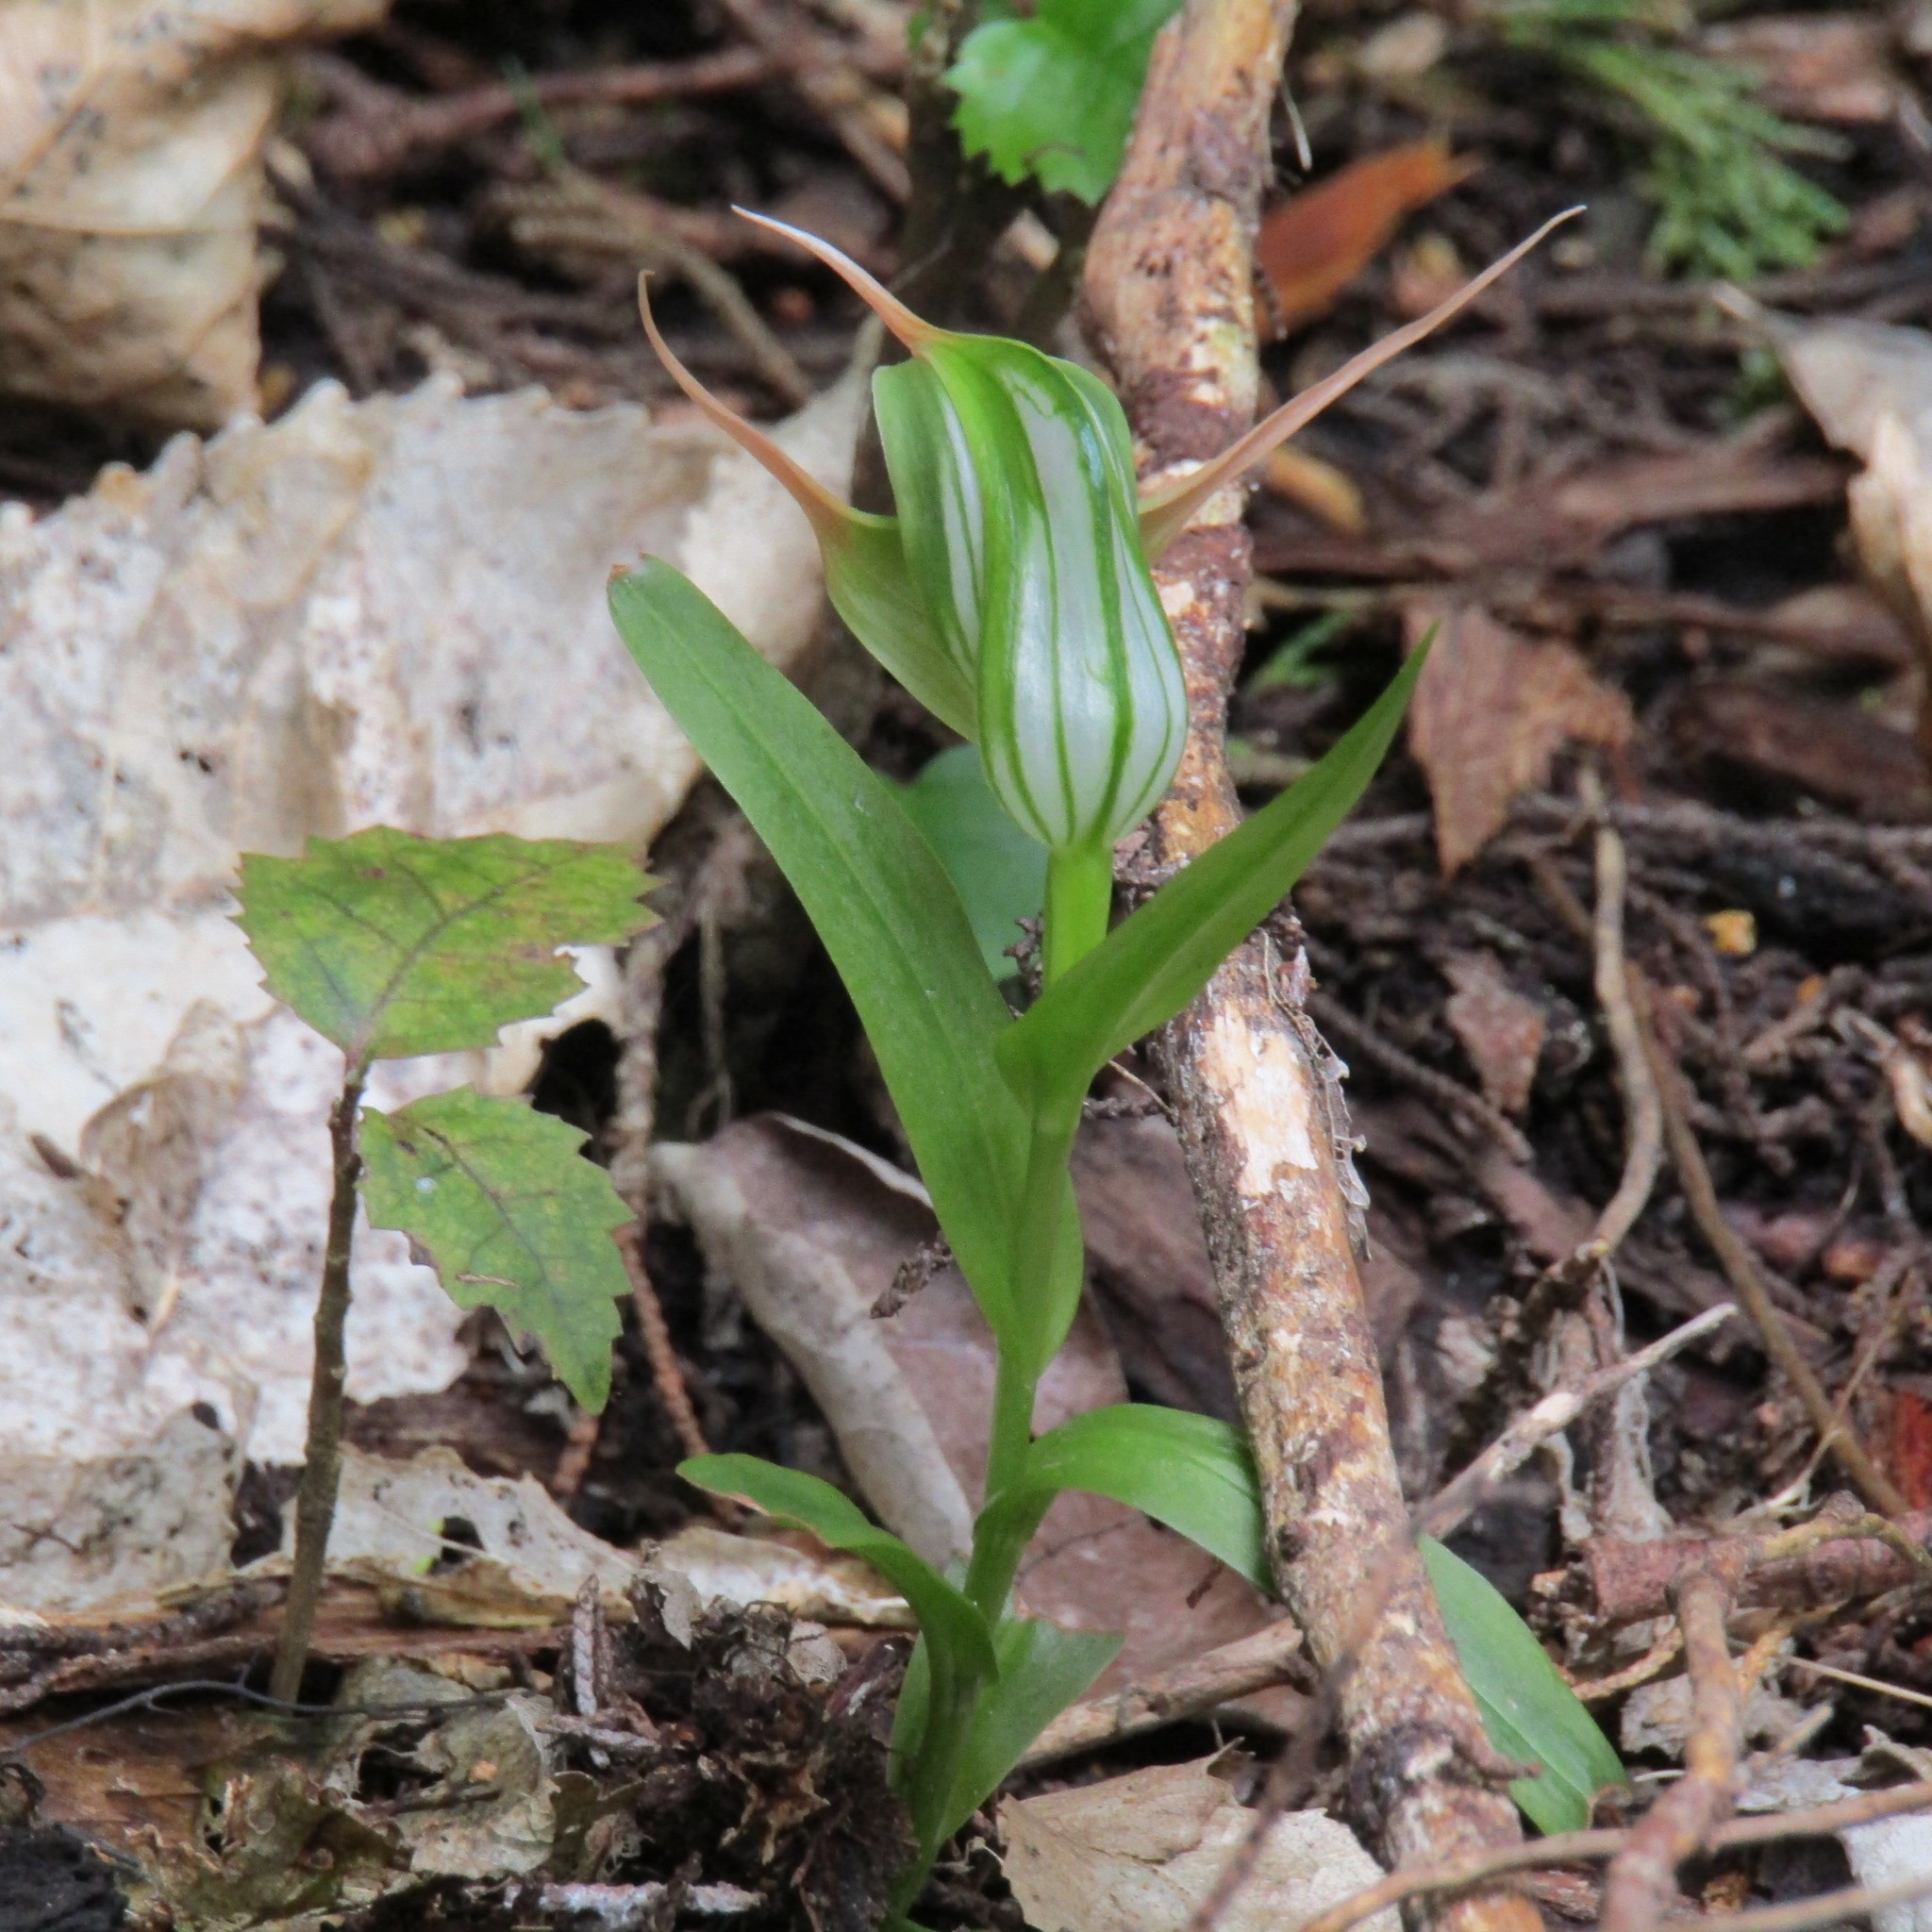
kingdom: Plantae
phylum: Tracheophyta
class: Liliopsida
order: Asparagales
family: Orchidaceae
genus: Pterostylis
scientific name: Pterostylis banksii
